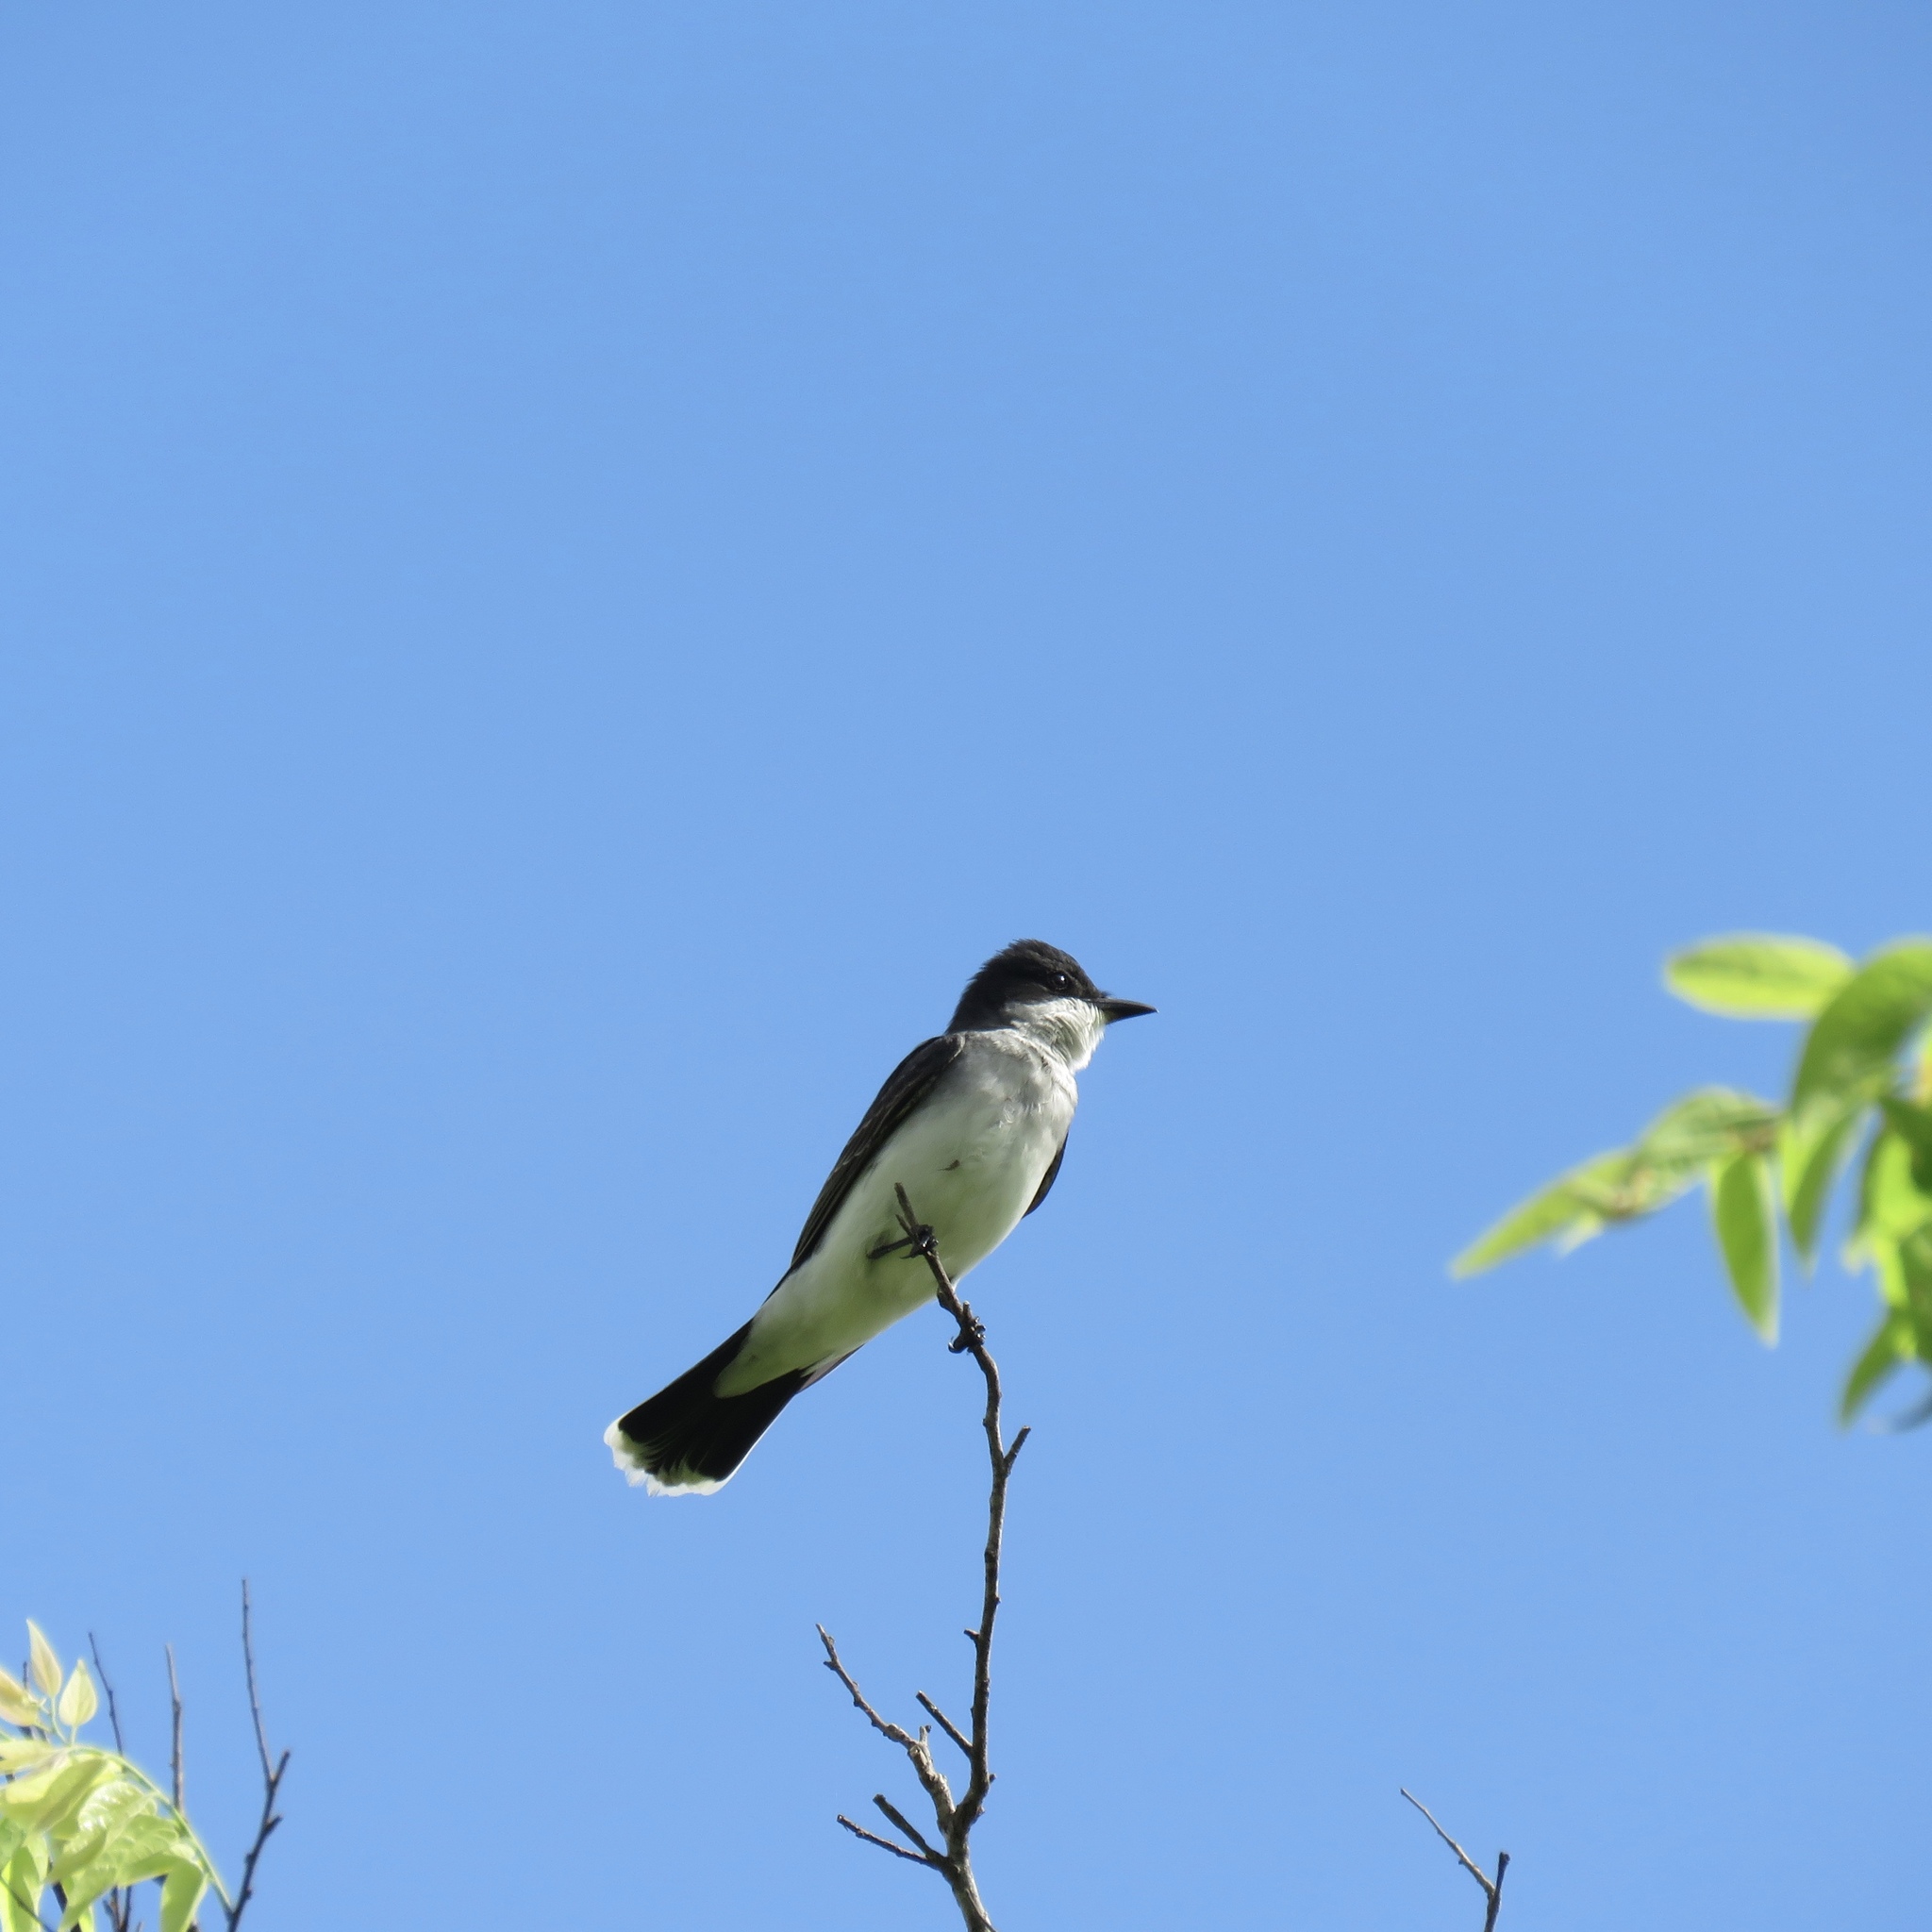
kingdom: Animalia
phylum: Chordata
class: Aves
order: Passeriformes
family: Tyrannidae
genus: Tyrannus
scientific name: Tyrannus tyrannus
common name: Eastern kingbird
